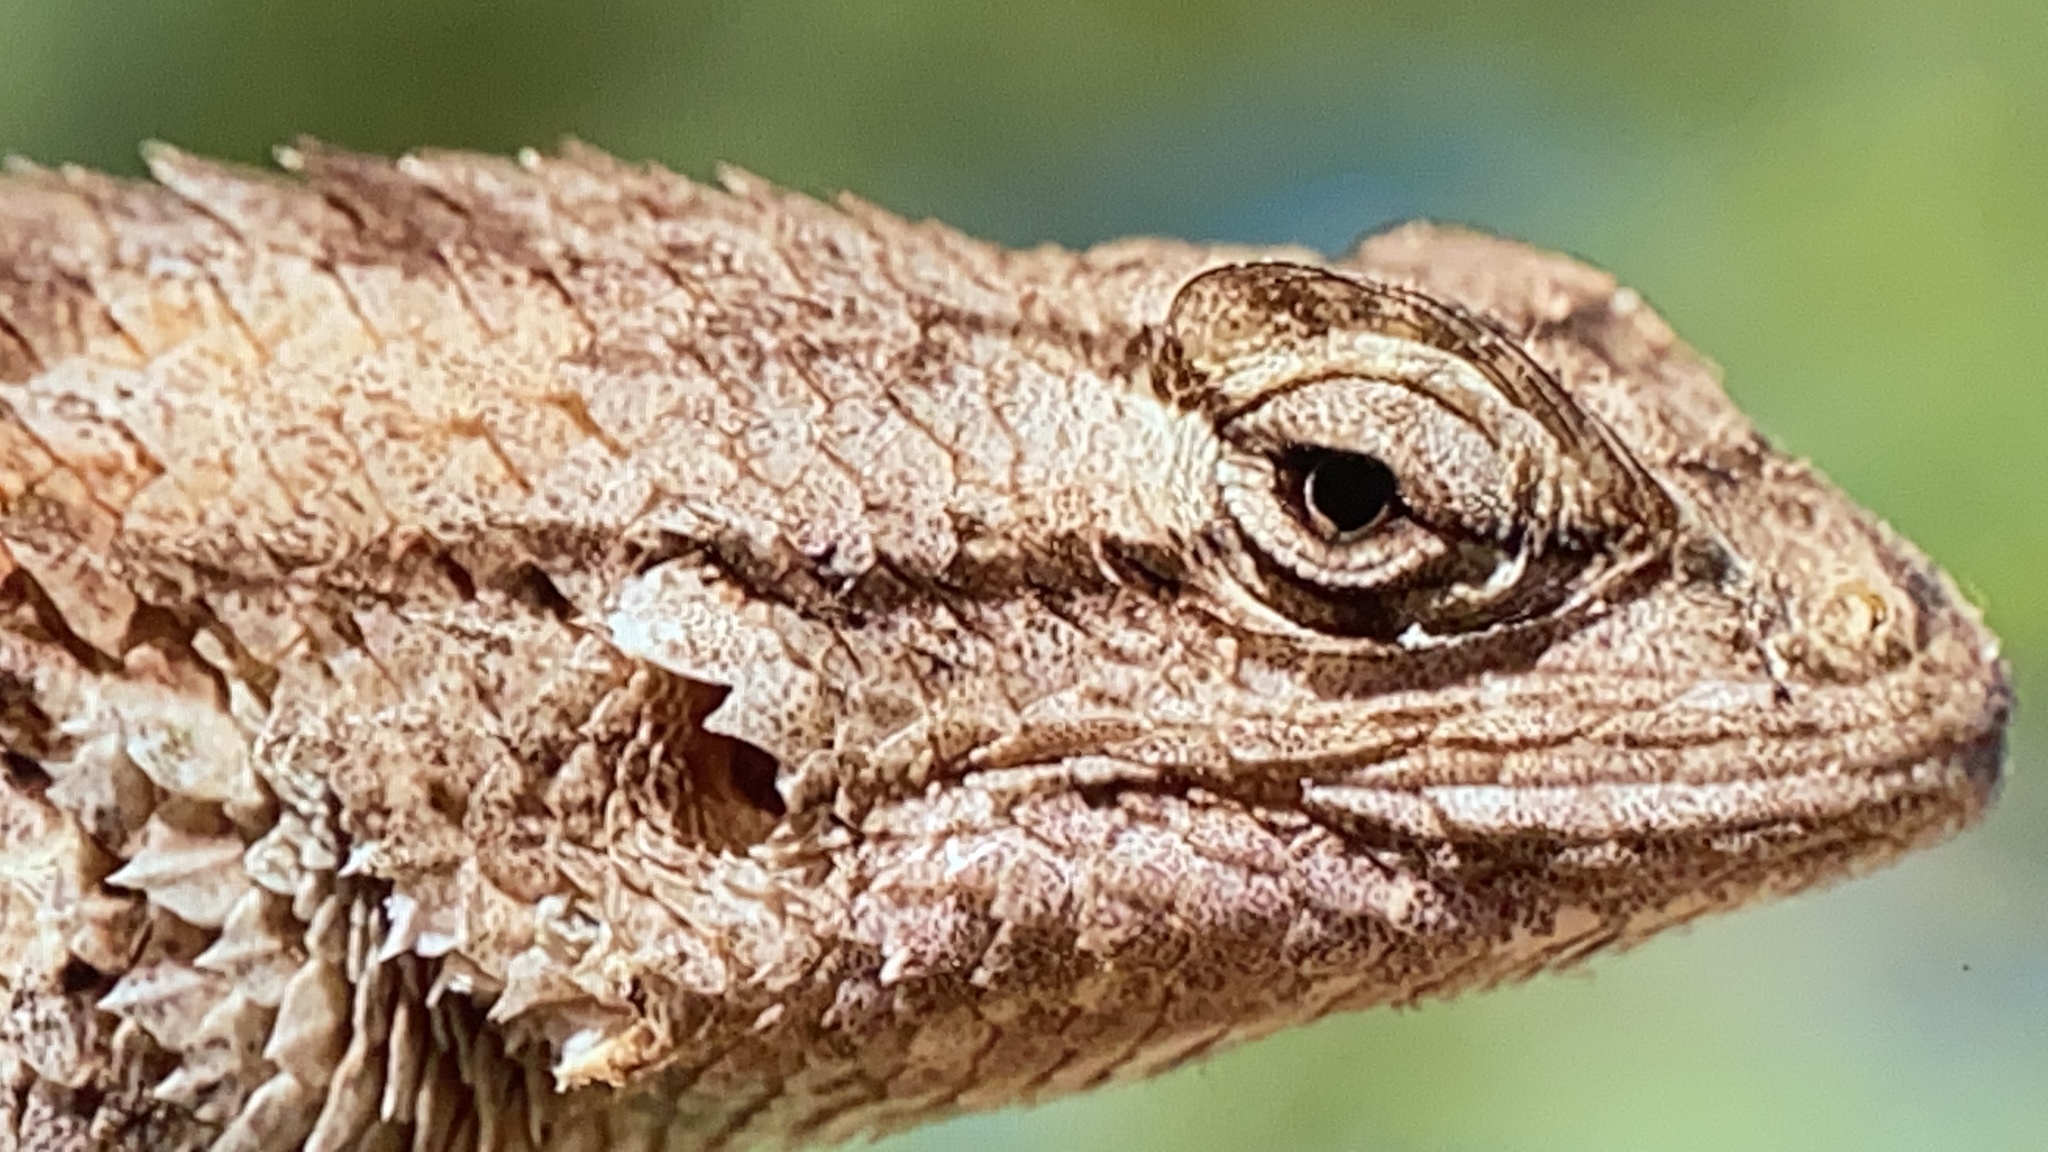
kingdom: Animalia
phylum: Chordata
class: Squamata
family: Phrynosomatidae
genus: Sceloporus
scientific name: Sceloporus clarkii
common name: Clark's spiny lizard
